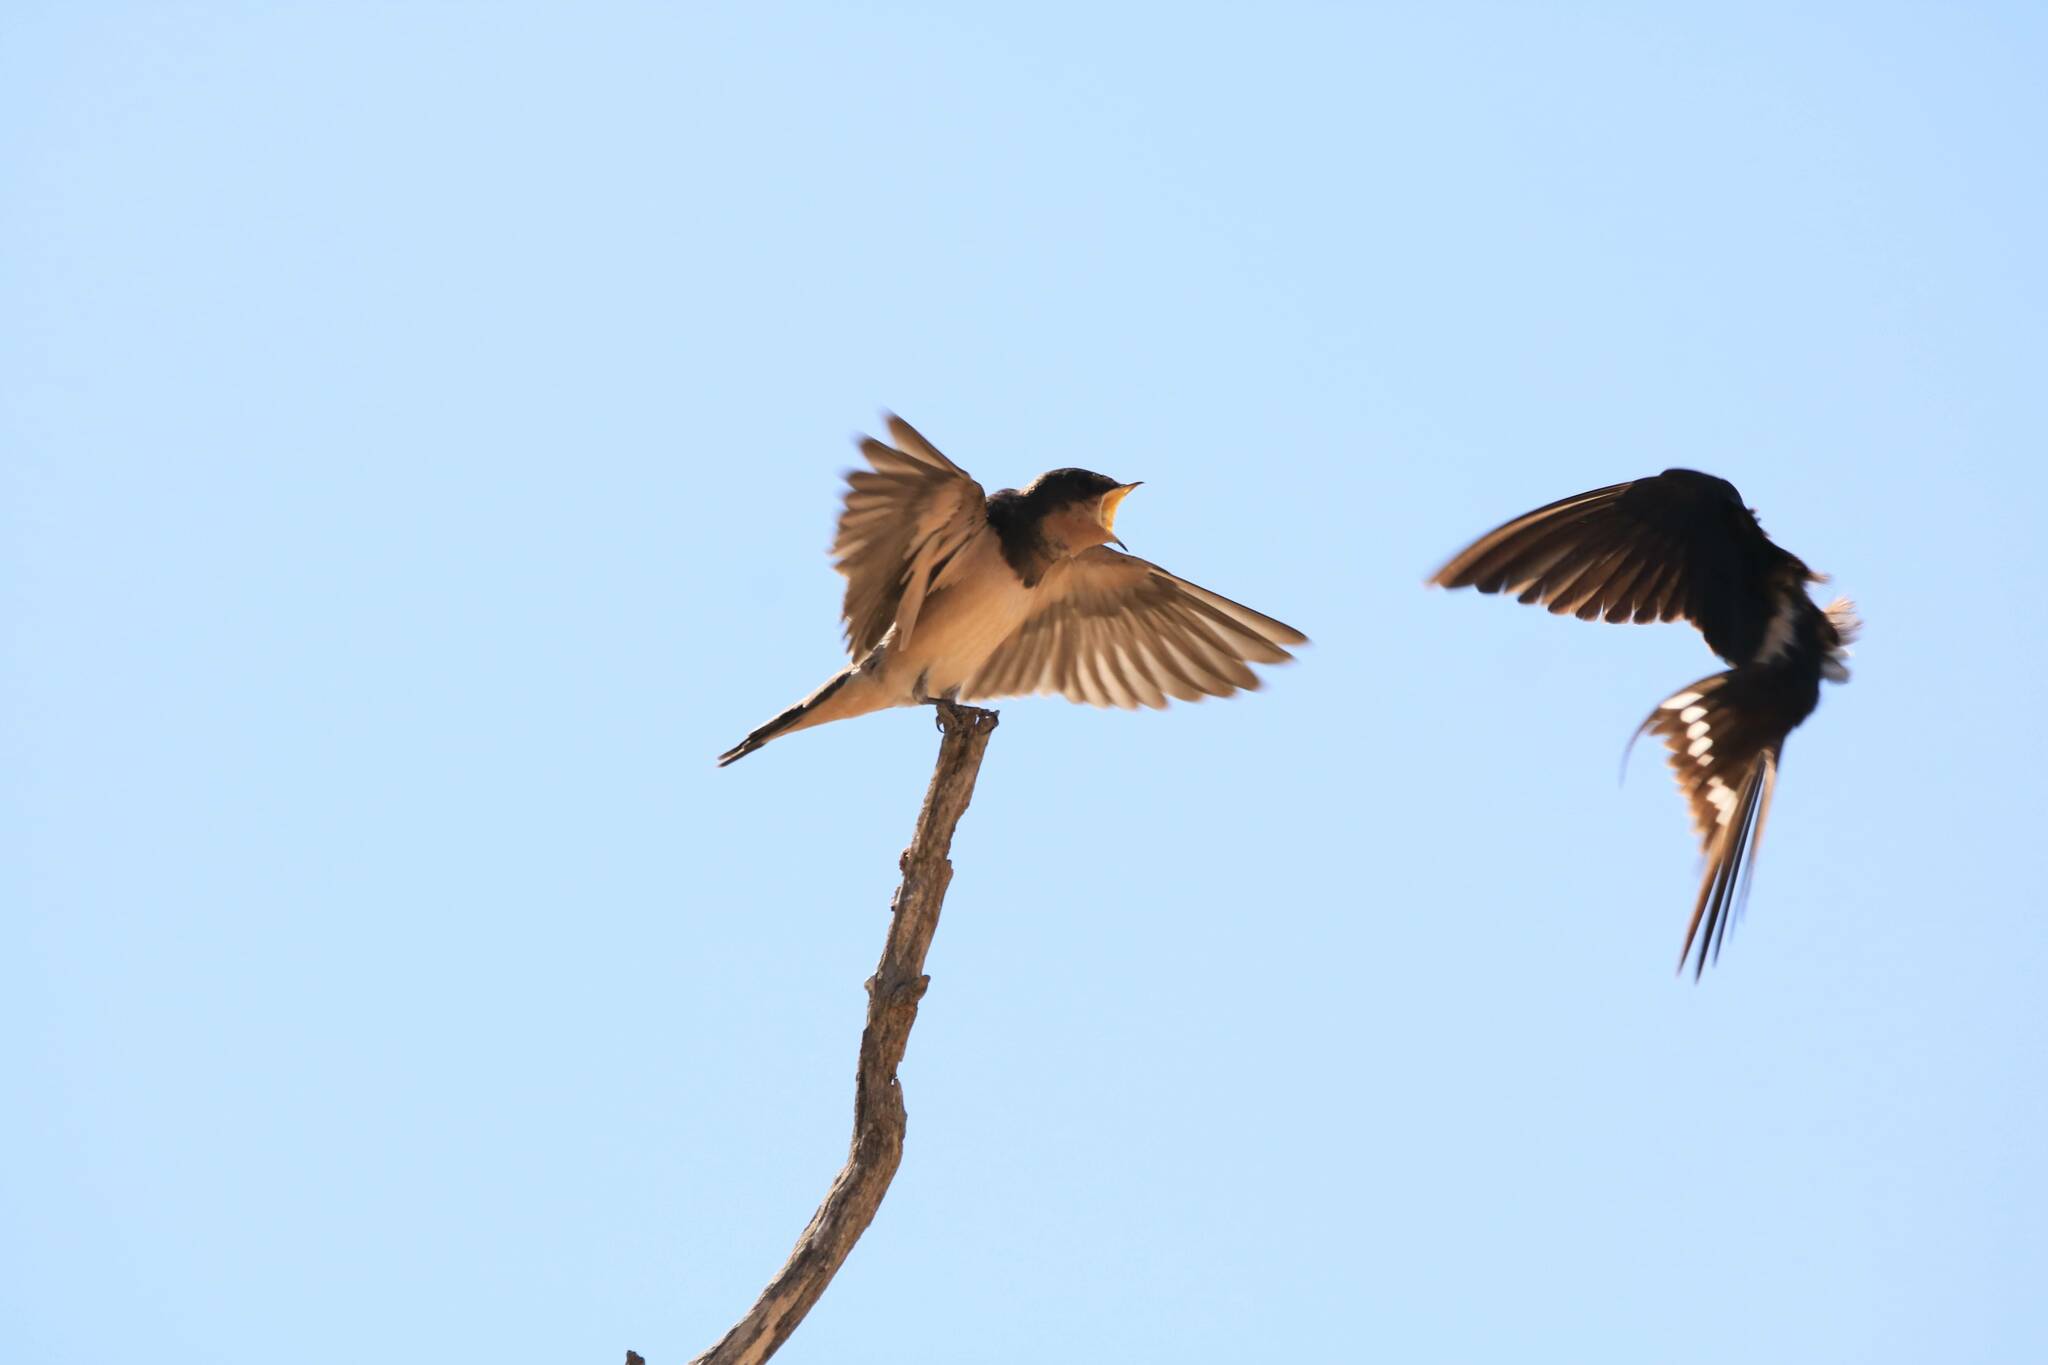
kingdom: Animalia
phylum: Chordata
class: Aves
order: Passeriformes
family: Hirundinidae
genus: Hirundo
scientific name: Hirundo rustica
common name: Barn swallow
